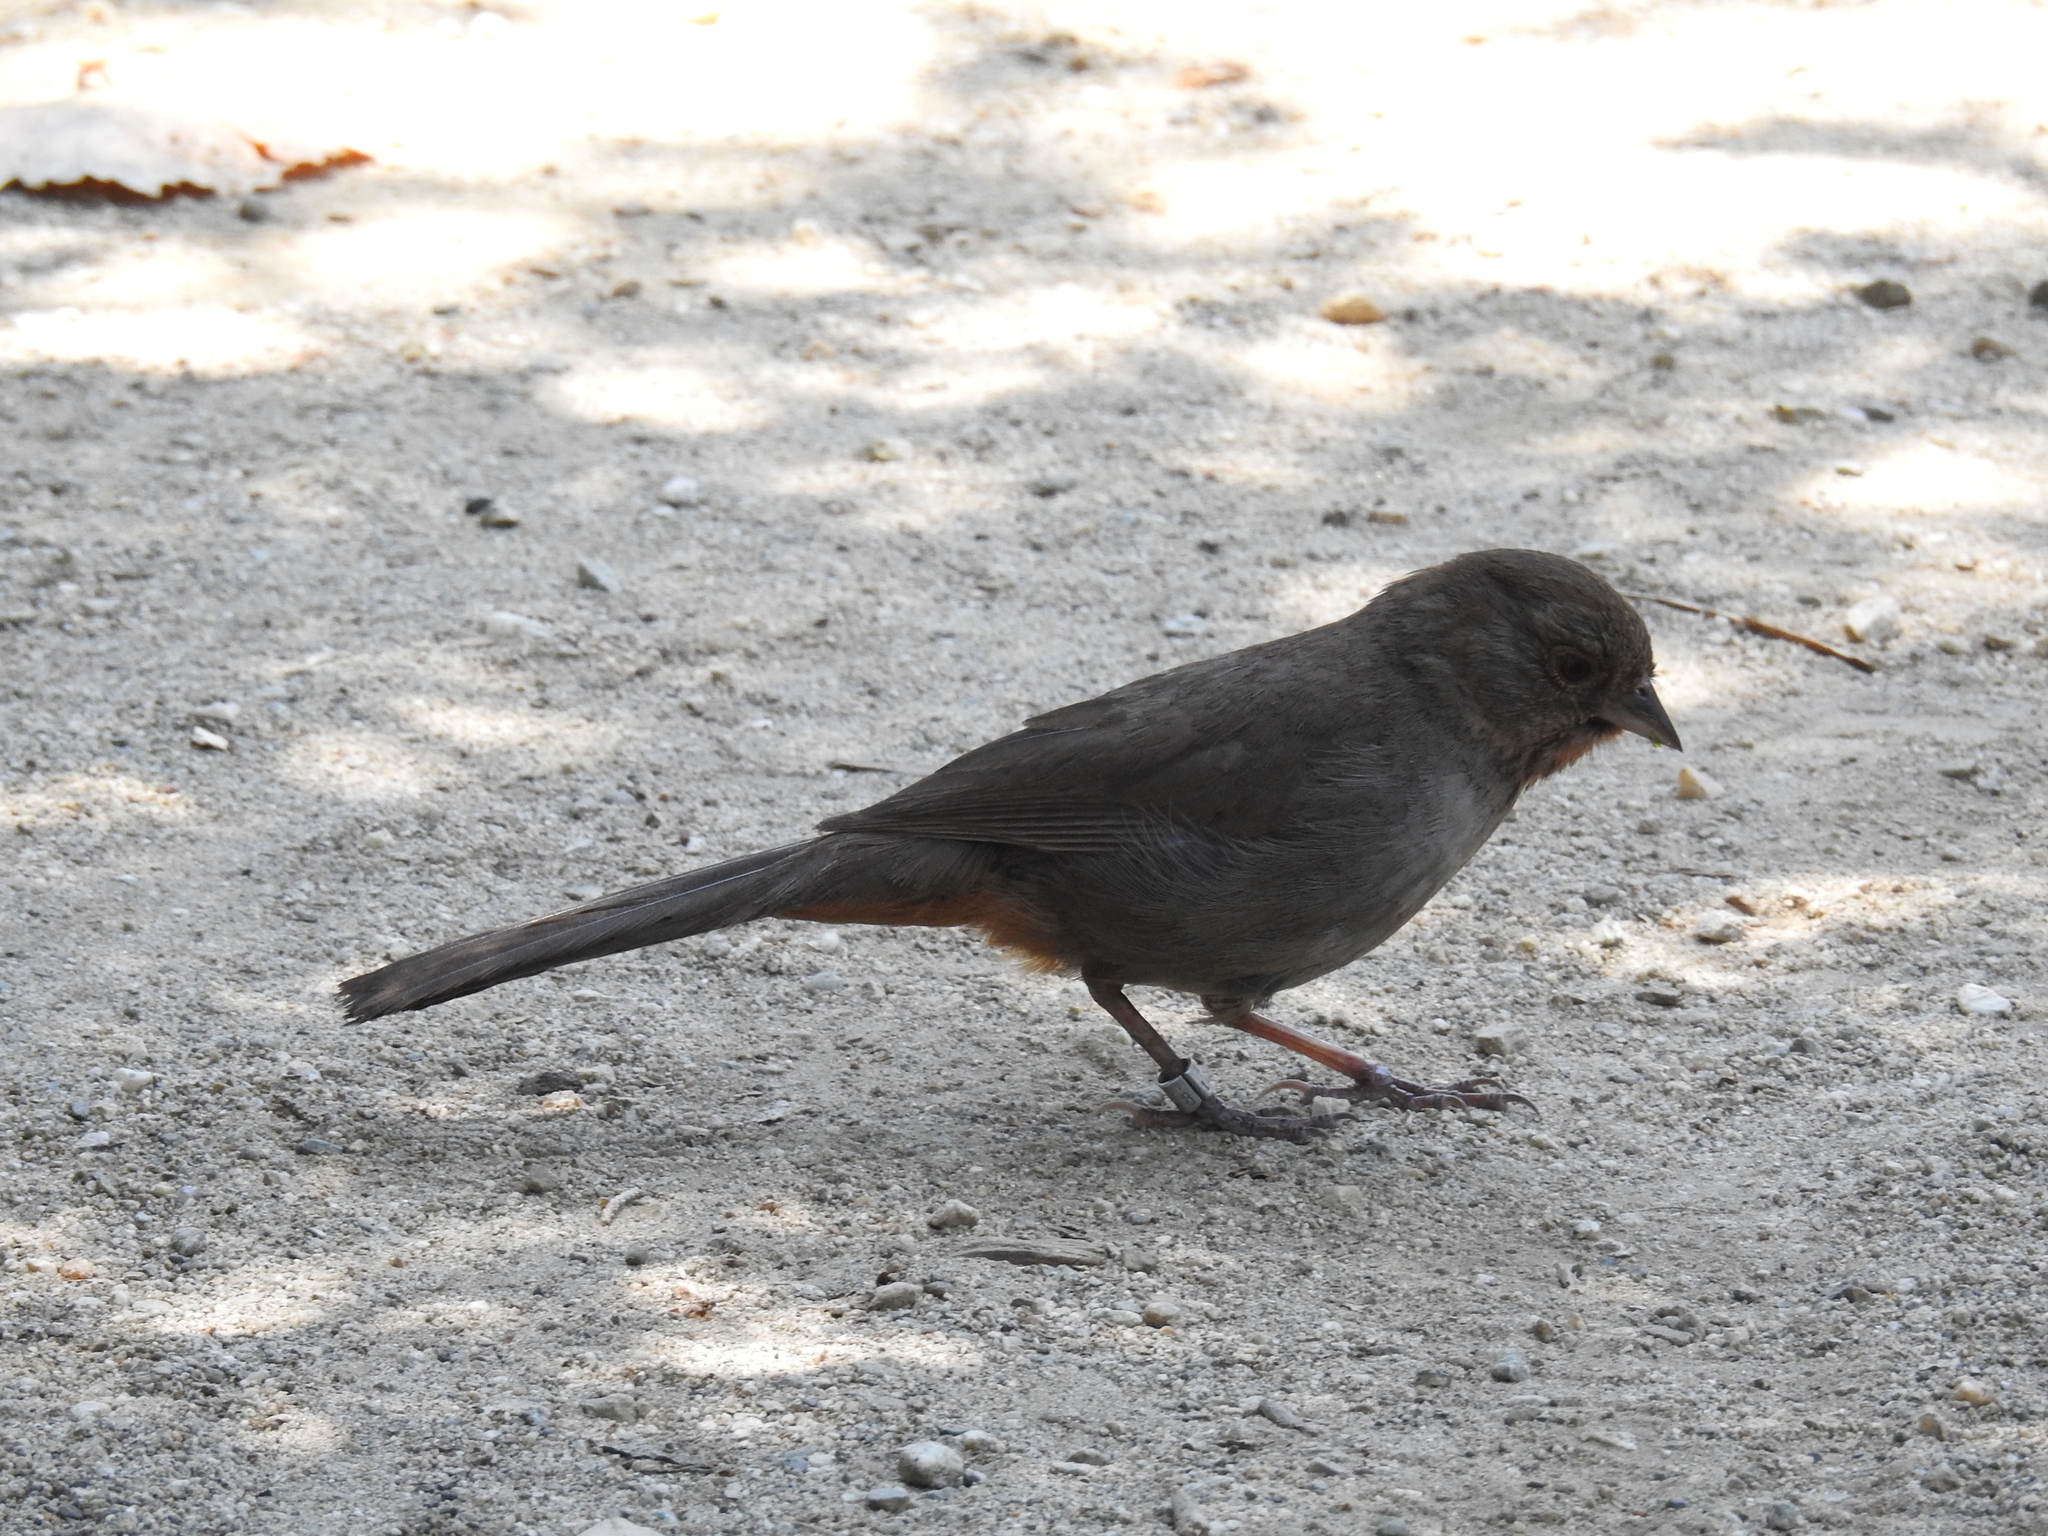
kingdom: Animalia
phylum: Chordata
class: Aves
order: Passeriformes
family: Passerellidae
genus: Melozone
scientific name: Melozone crissalis
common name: California towhee
